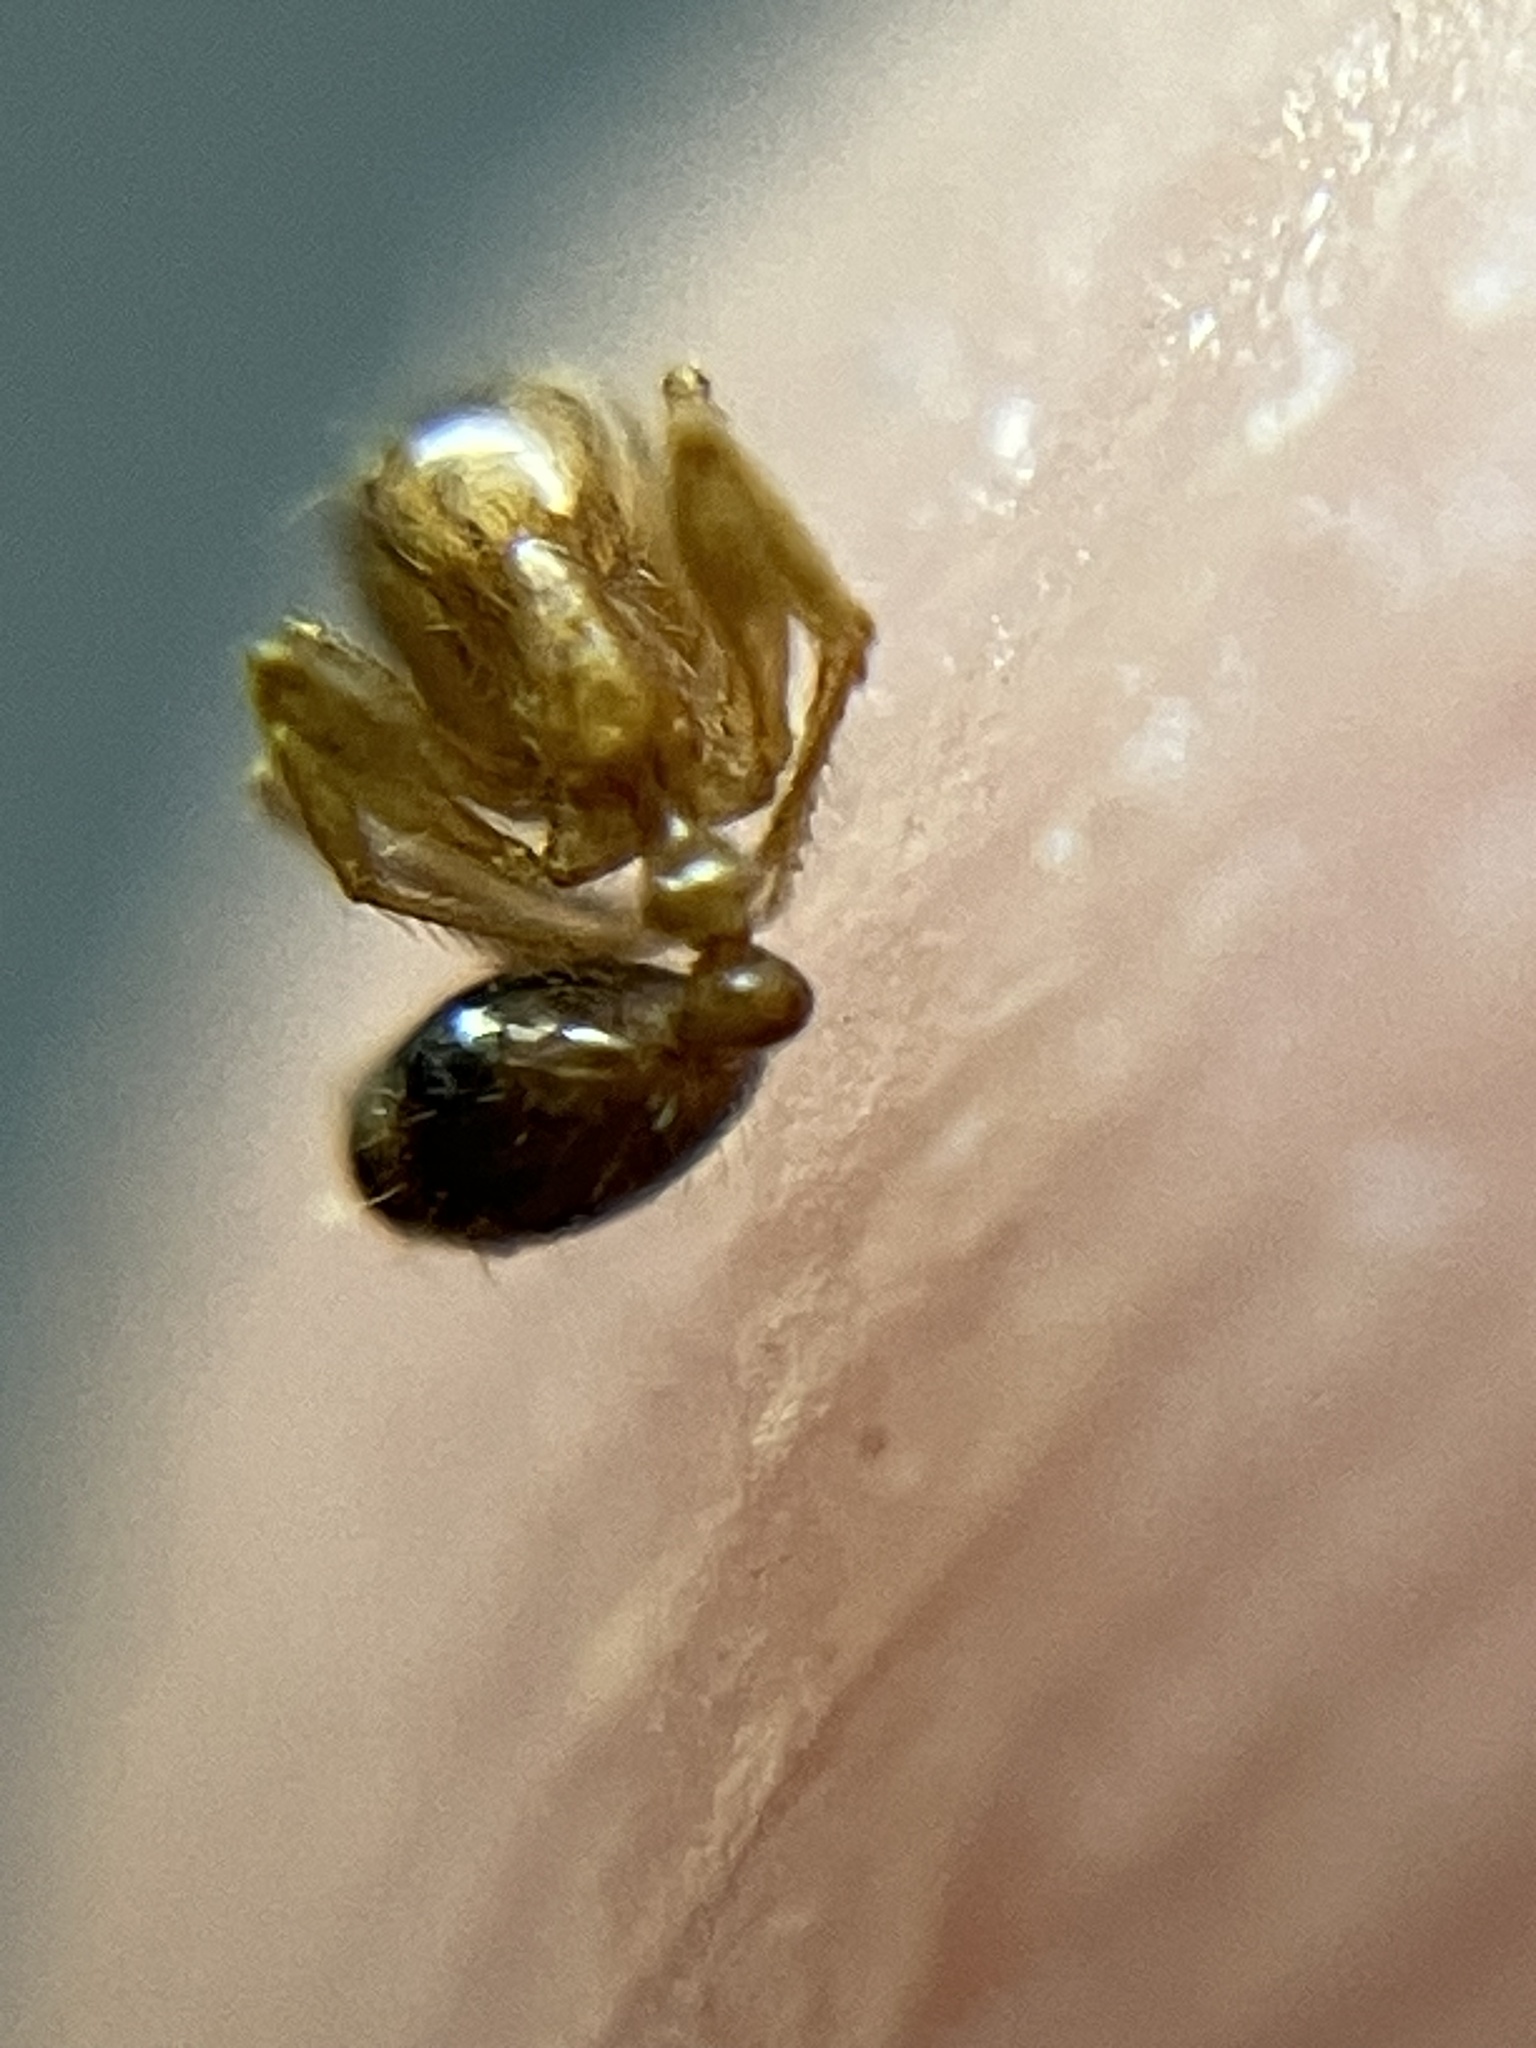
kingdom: Animalia
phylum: Arthropoda
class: Insecta
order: Hymenoptera
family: Formicidae
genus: Erromyrma
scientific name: Erromyrma latinodis
